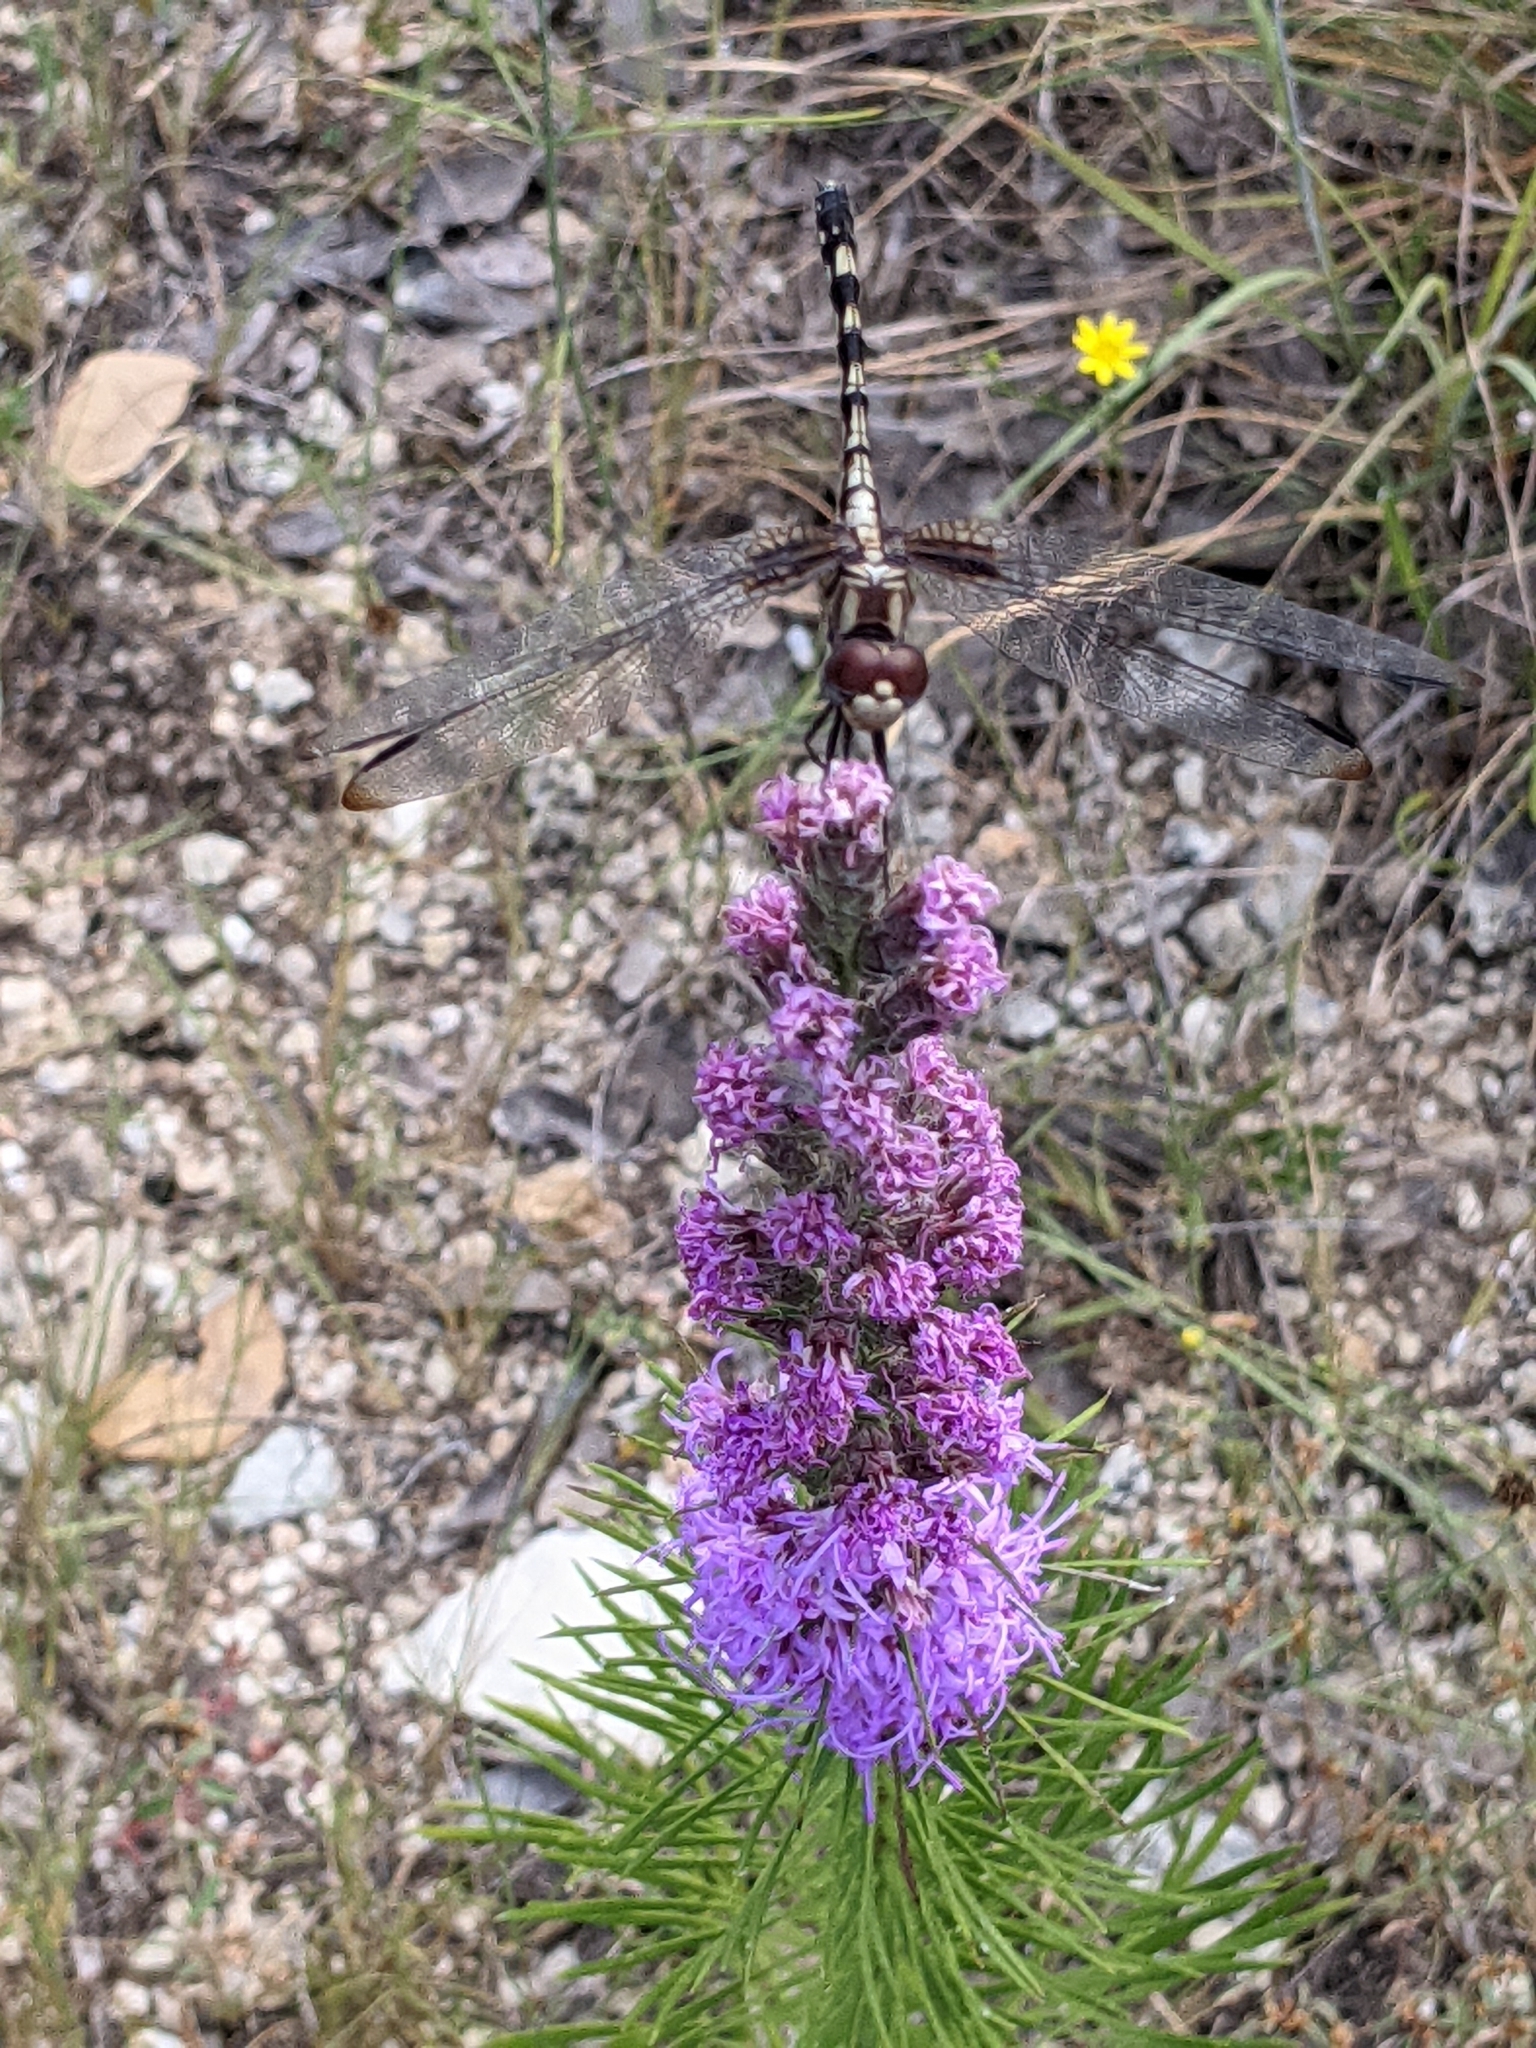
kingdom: Animalia
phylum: Arthropoda
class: Insecta
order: Odonata
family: Libellulidae
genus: Dythemis
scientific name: Dythemis fugax
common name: Checkered setwing
